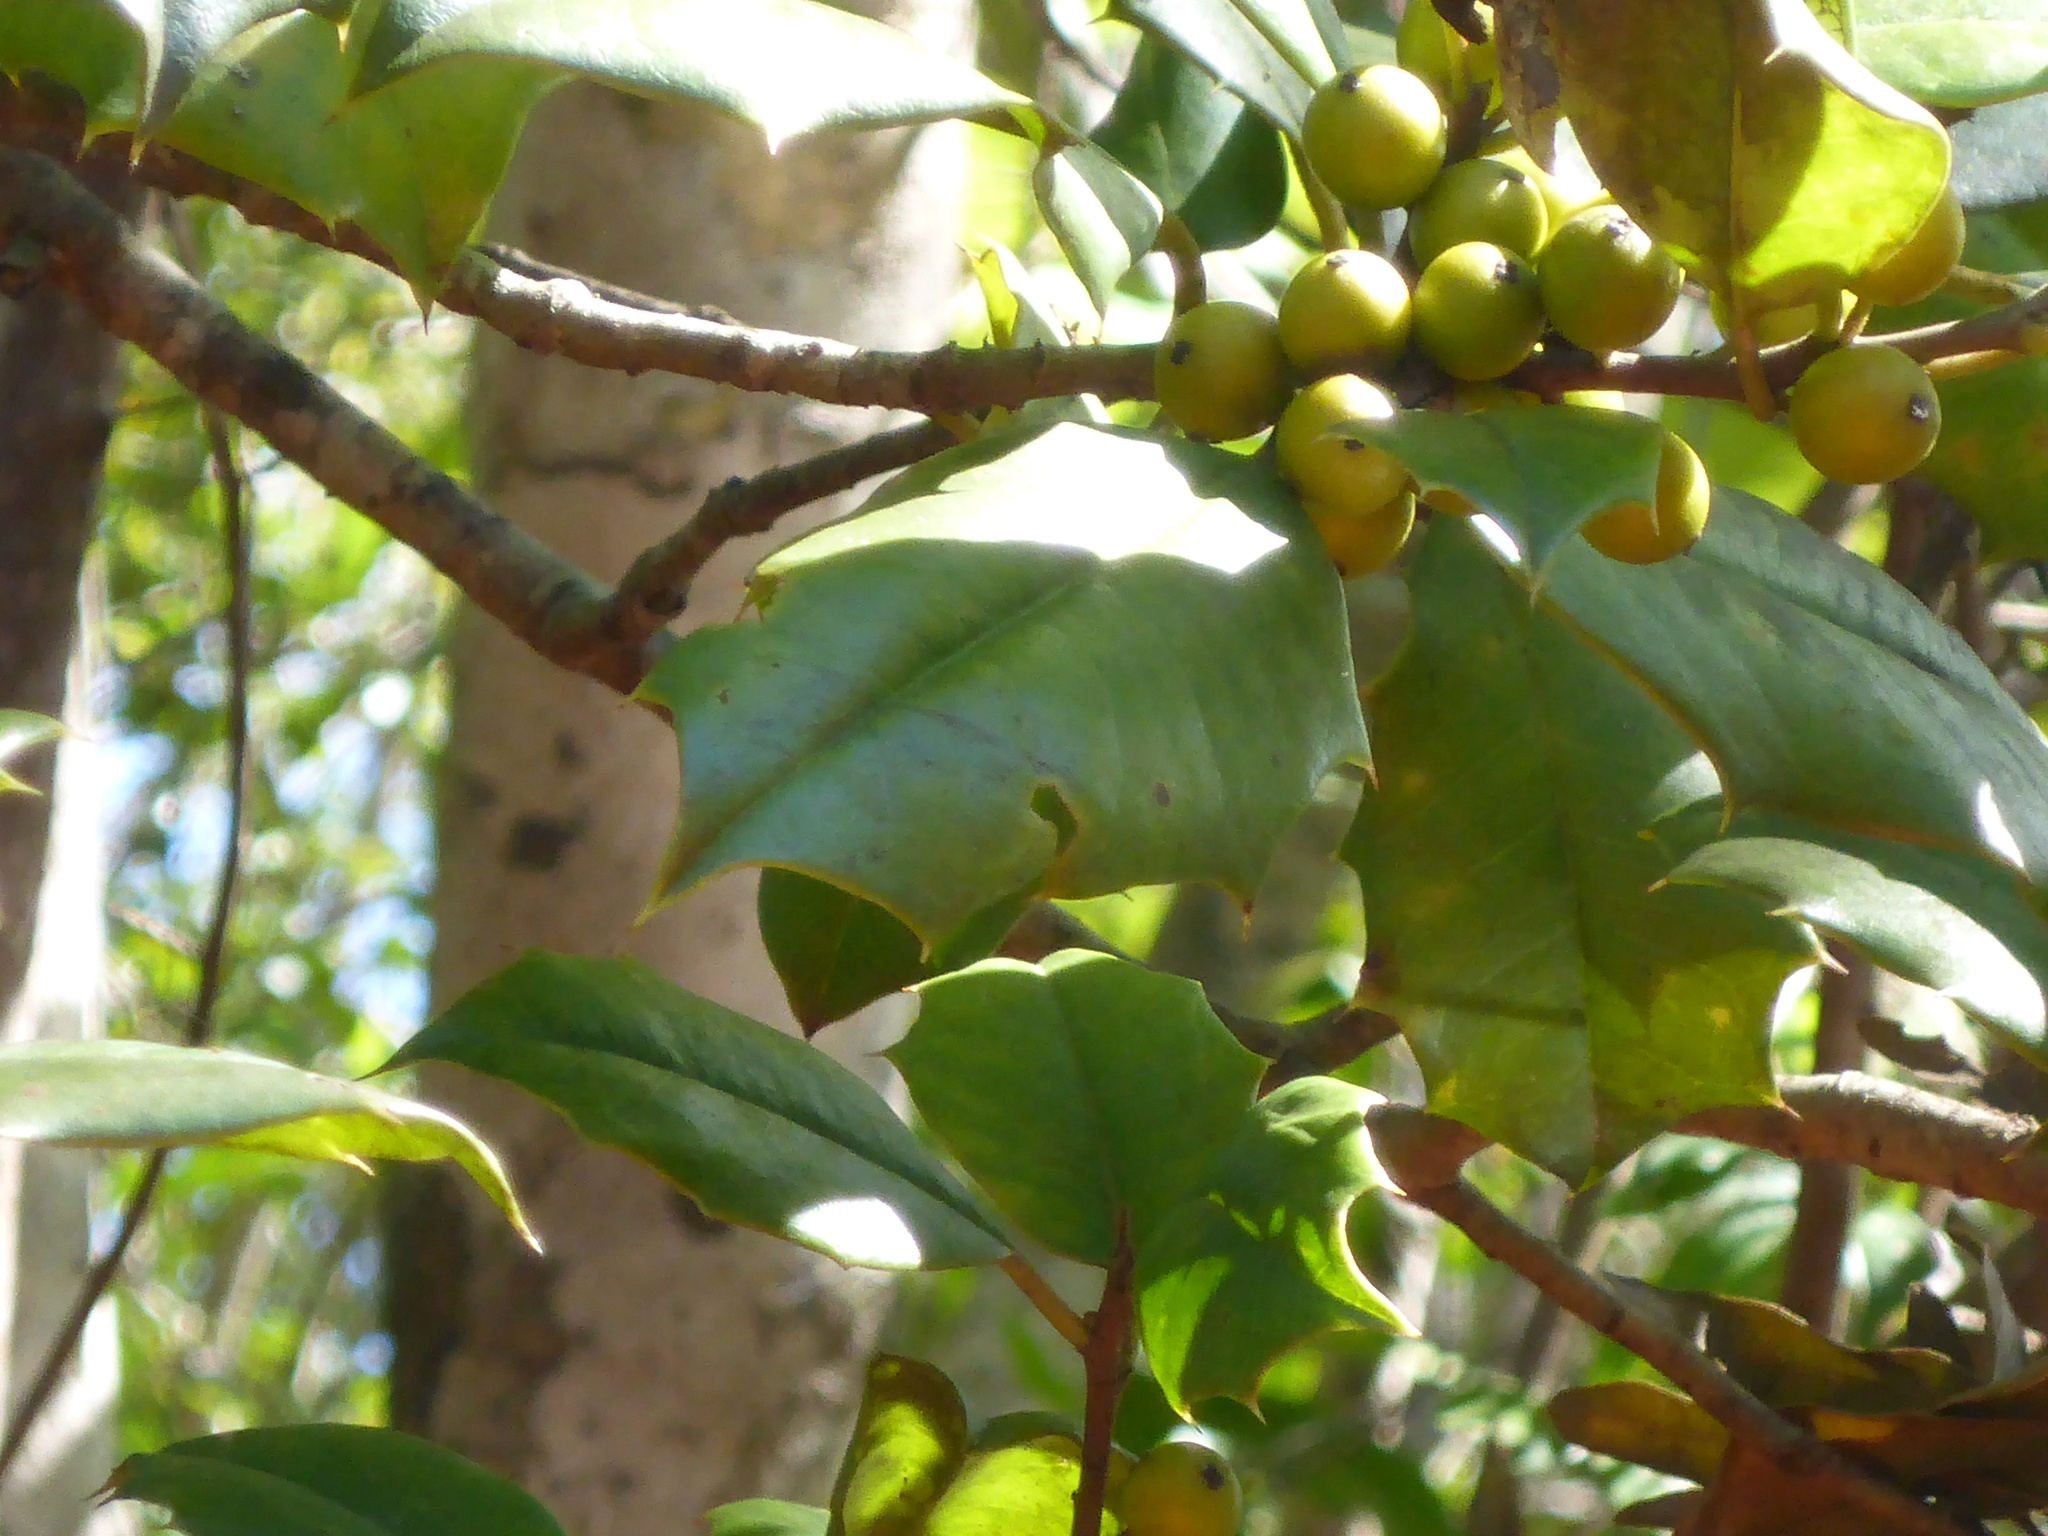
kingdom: Plantae
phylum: Tracheophyta
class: Magnoliopsida
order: Aquifoliales
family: Aquifoliaceae
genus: Ilex
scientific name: Ilex opaca
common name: American holly
